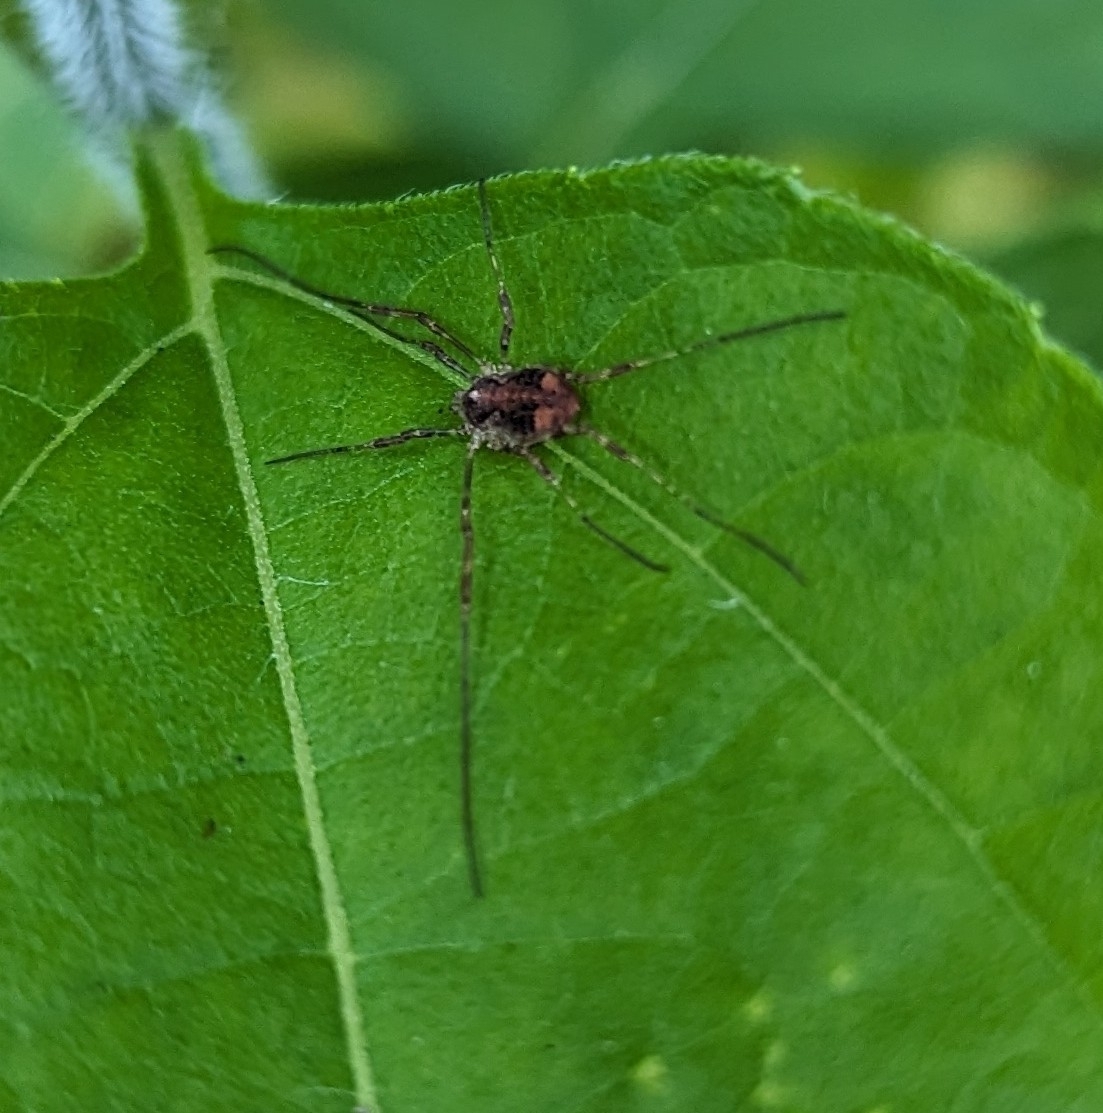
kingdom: Animalia
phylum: Arthropoda
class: Arachnida
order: Opiliones
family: Phalangiidae
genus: Paroligolophus
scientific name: Paroligolophus agrestis
